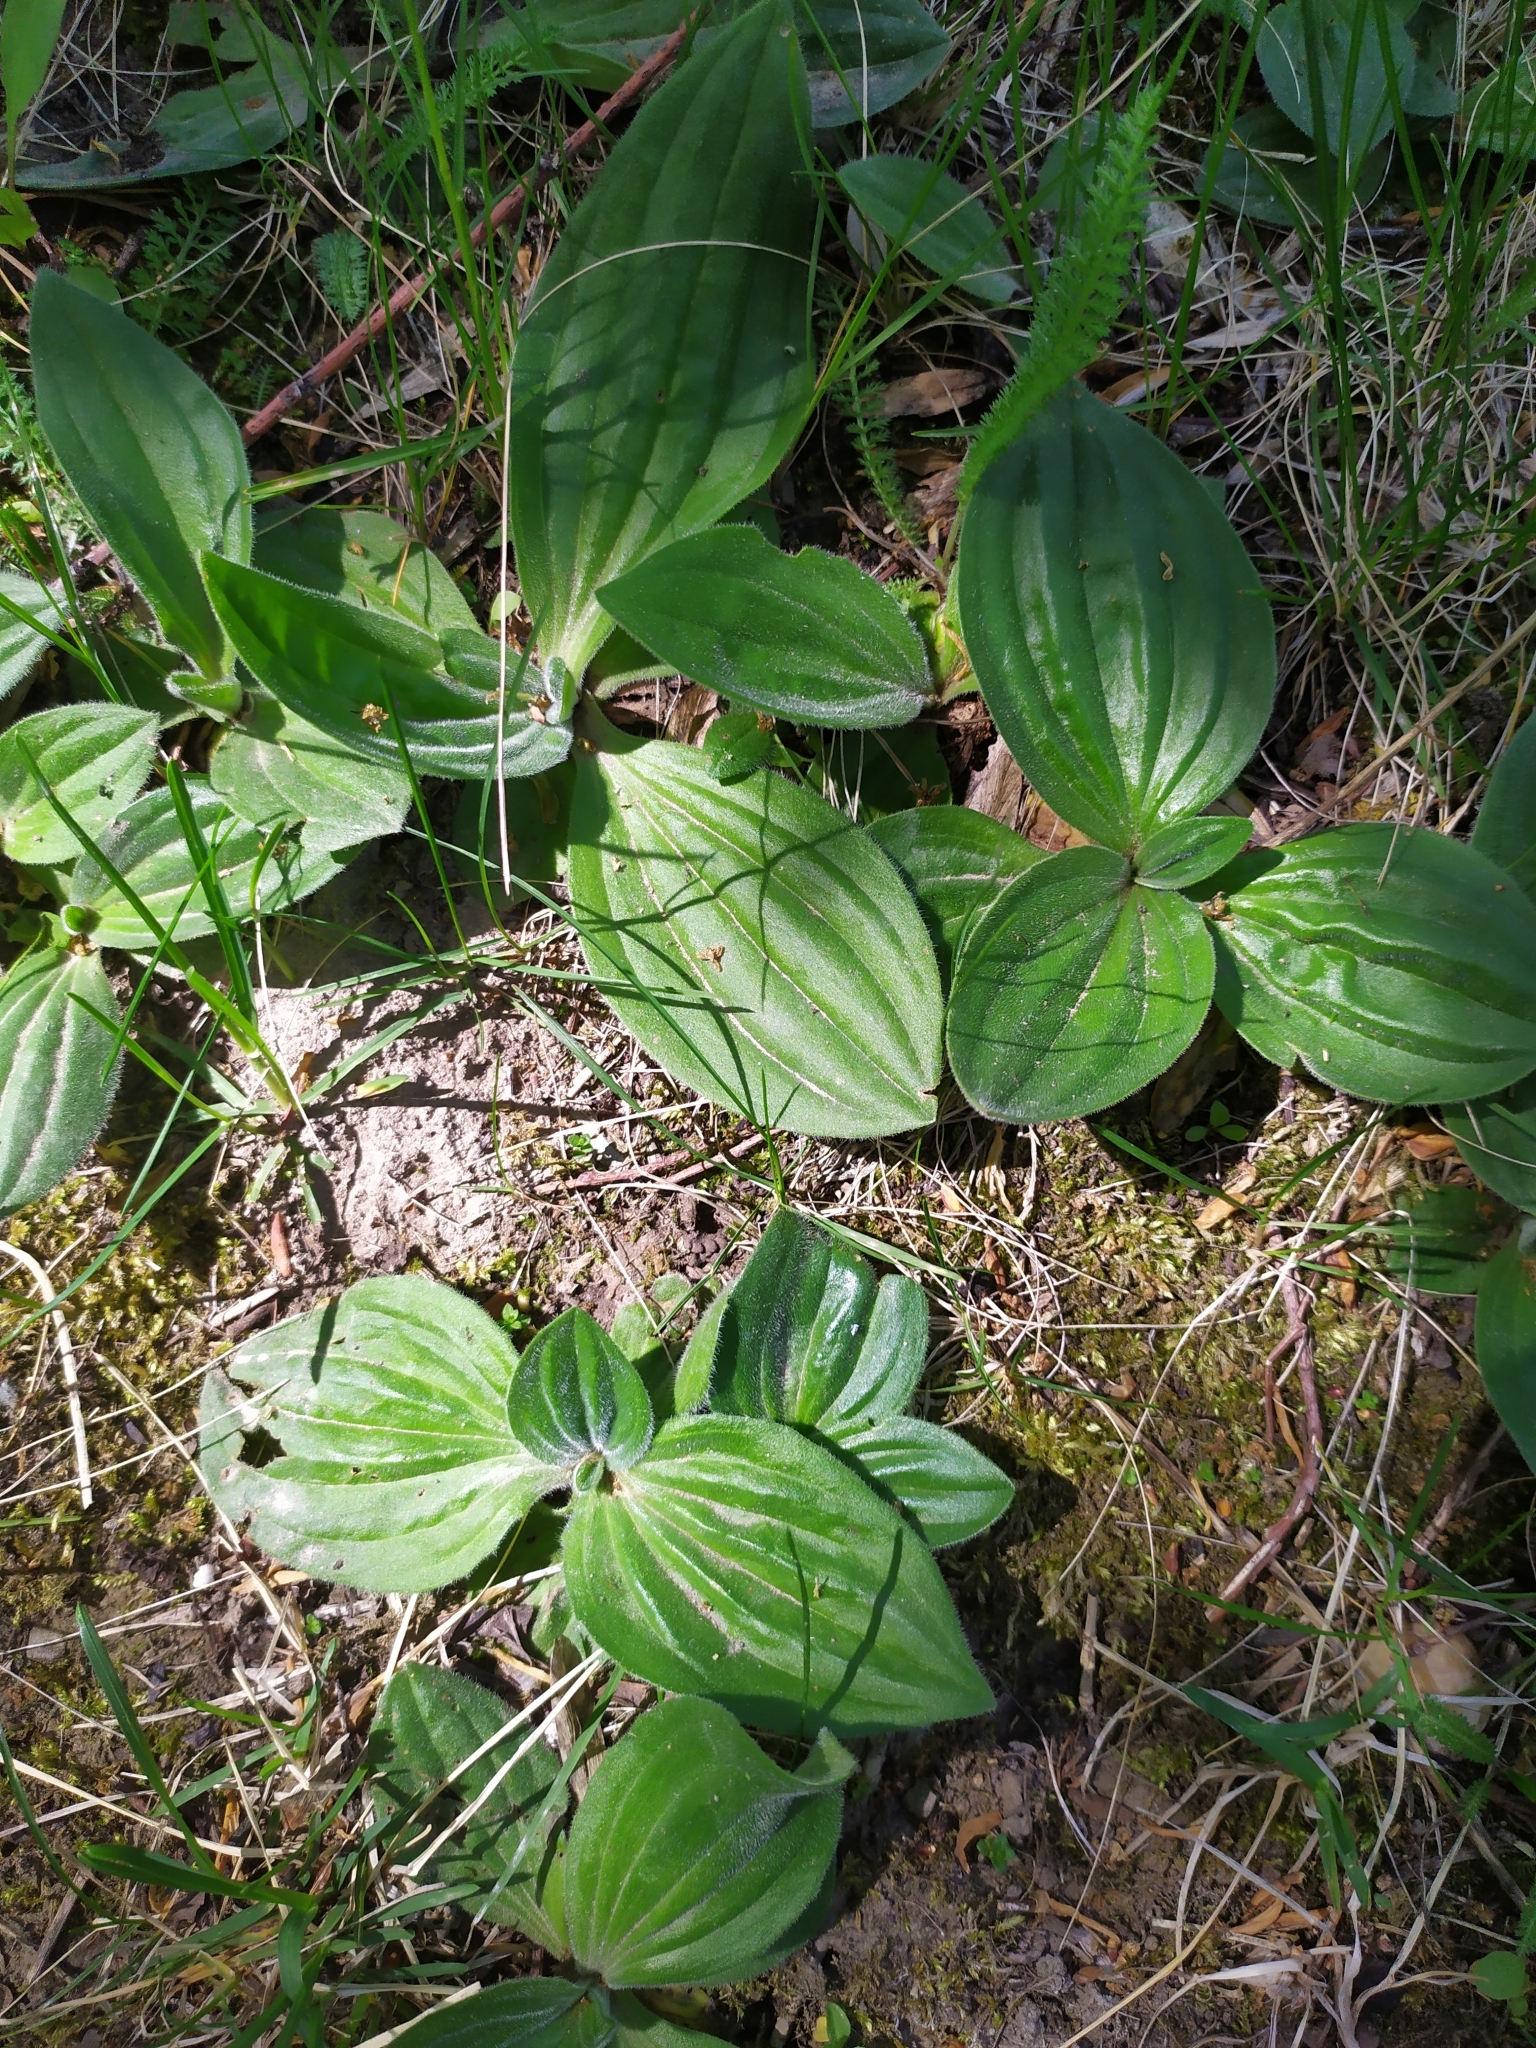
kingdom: Plantae
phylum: Tracheophyta
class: Magnoliopsida
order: Lamiales
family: Plantaginaceae
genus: Plantago
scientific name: Plantago media
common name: Hoary plantain
